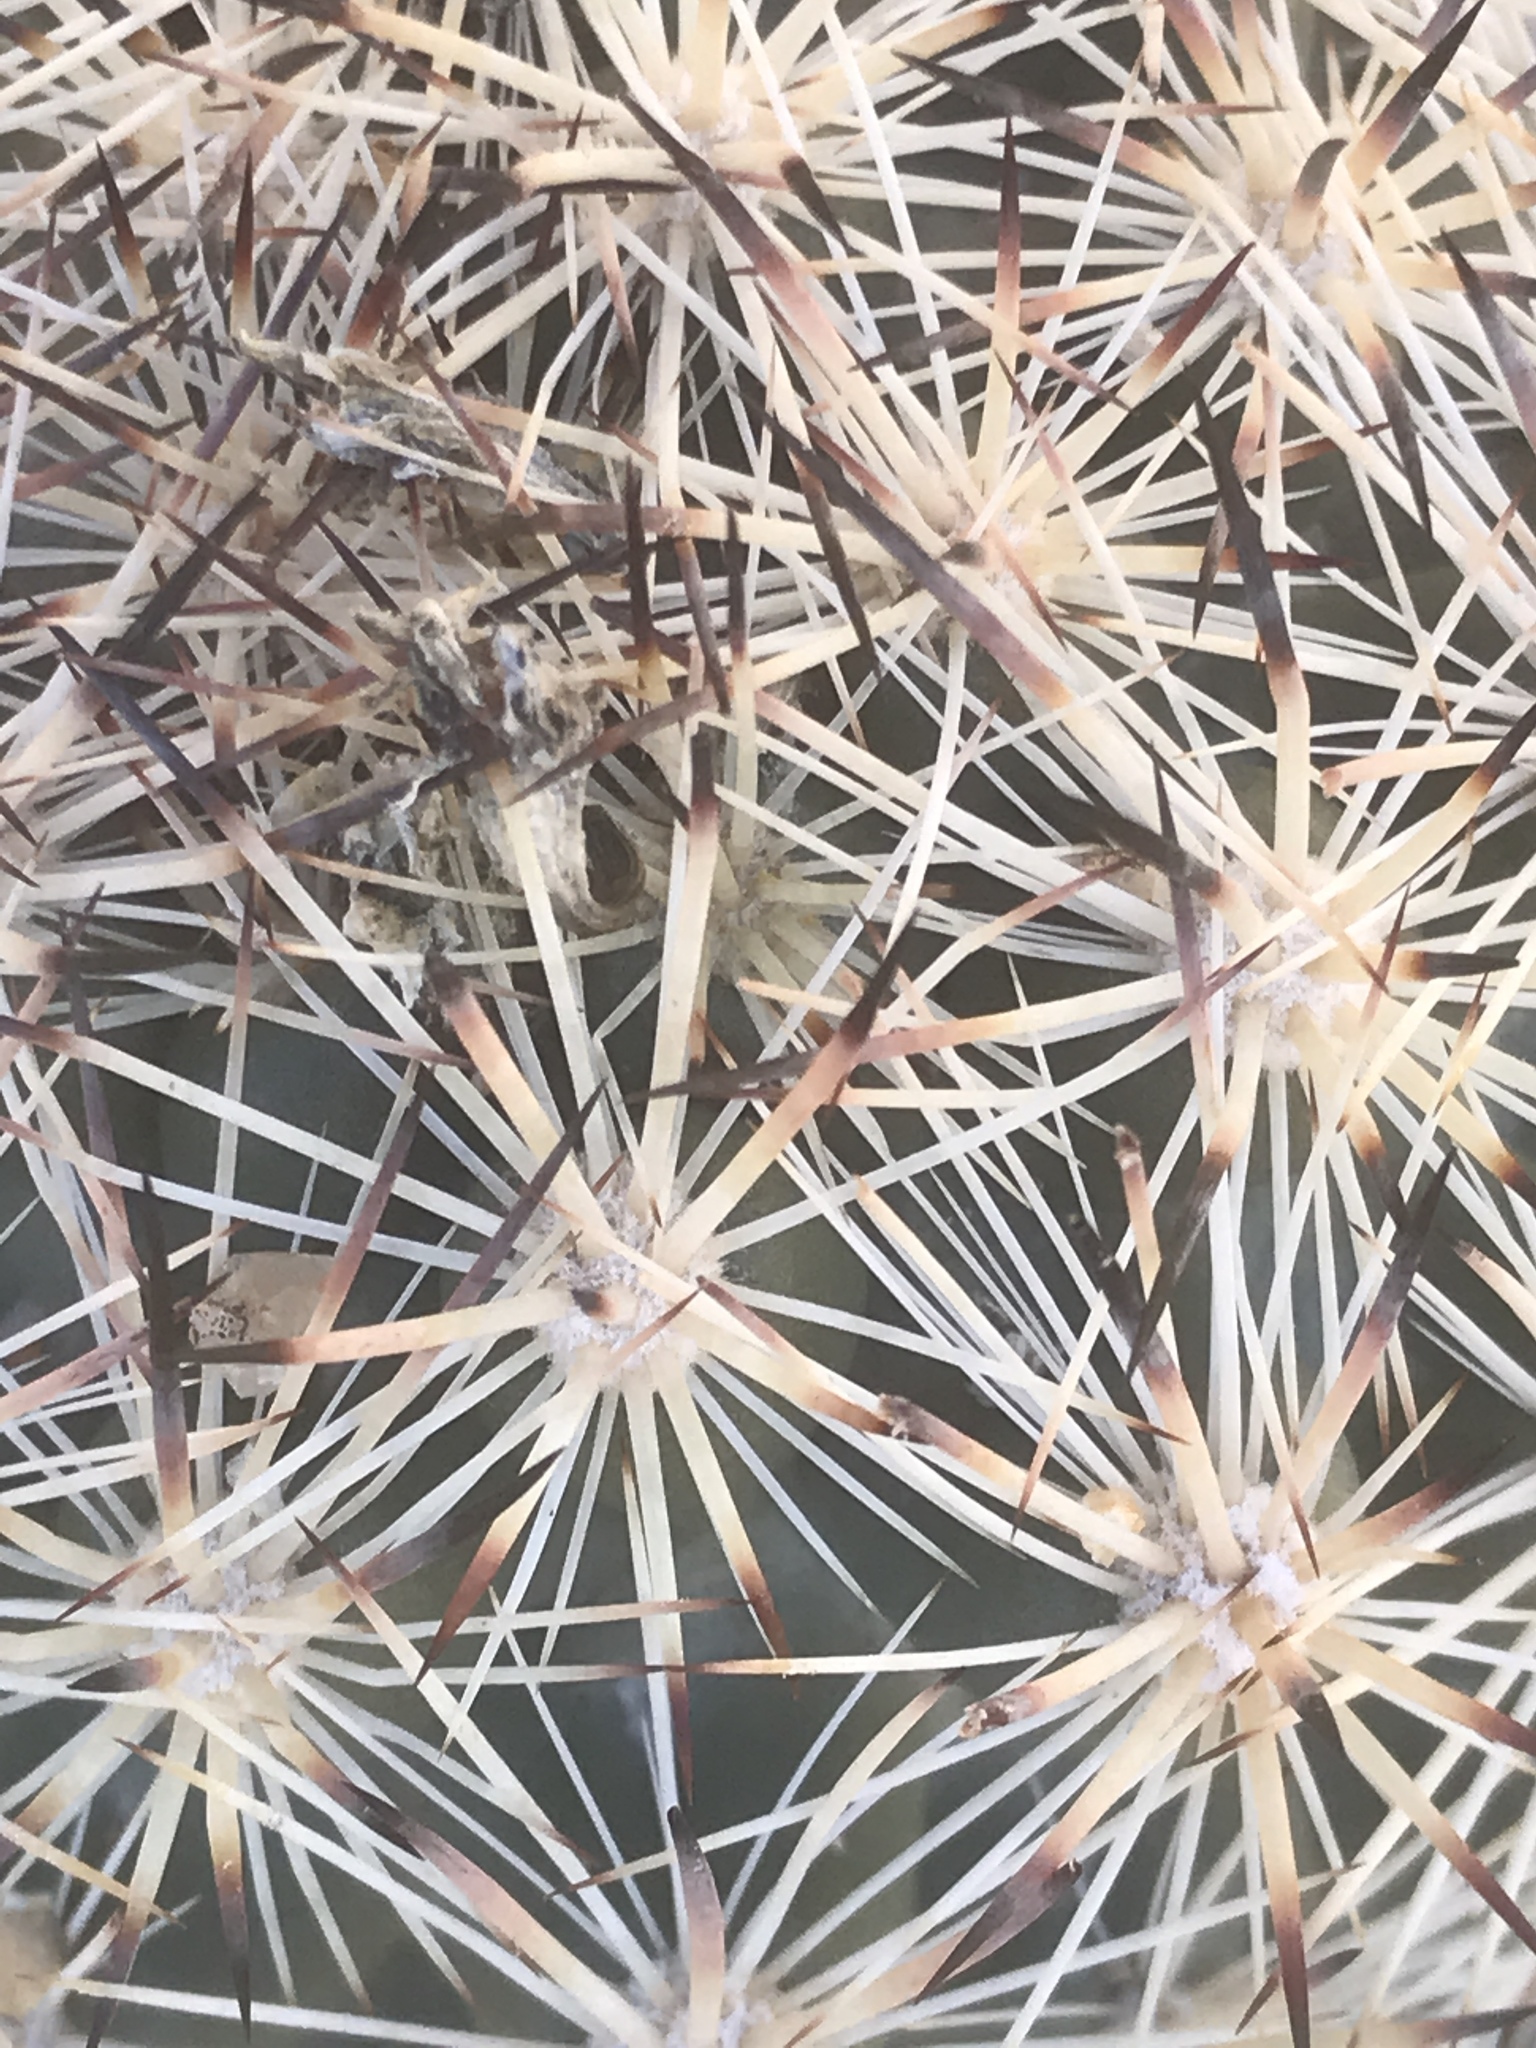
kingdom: Plantae
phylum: Tracheophyta
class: Magnoliopsida
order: Caryophyllales
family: Cactaceae
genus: Pelecyphora
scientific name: Pelecyphora alversonii
